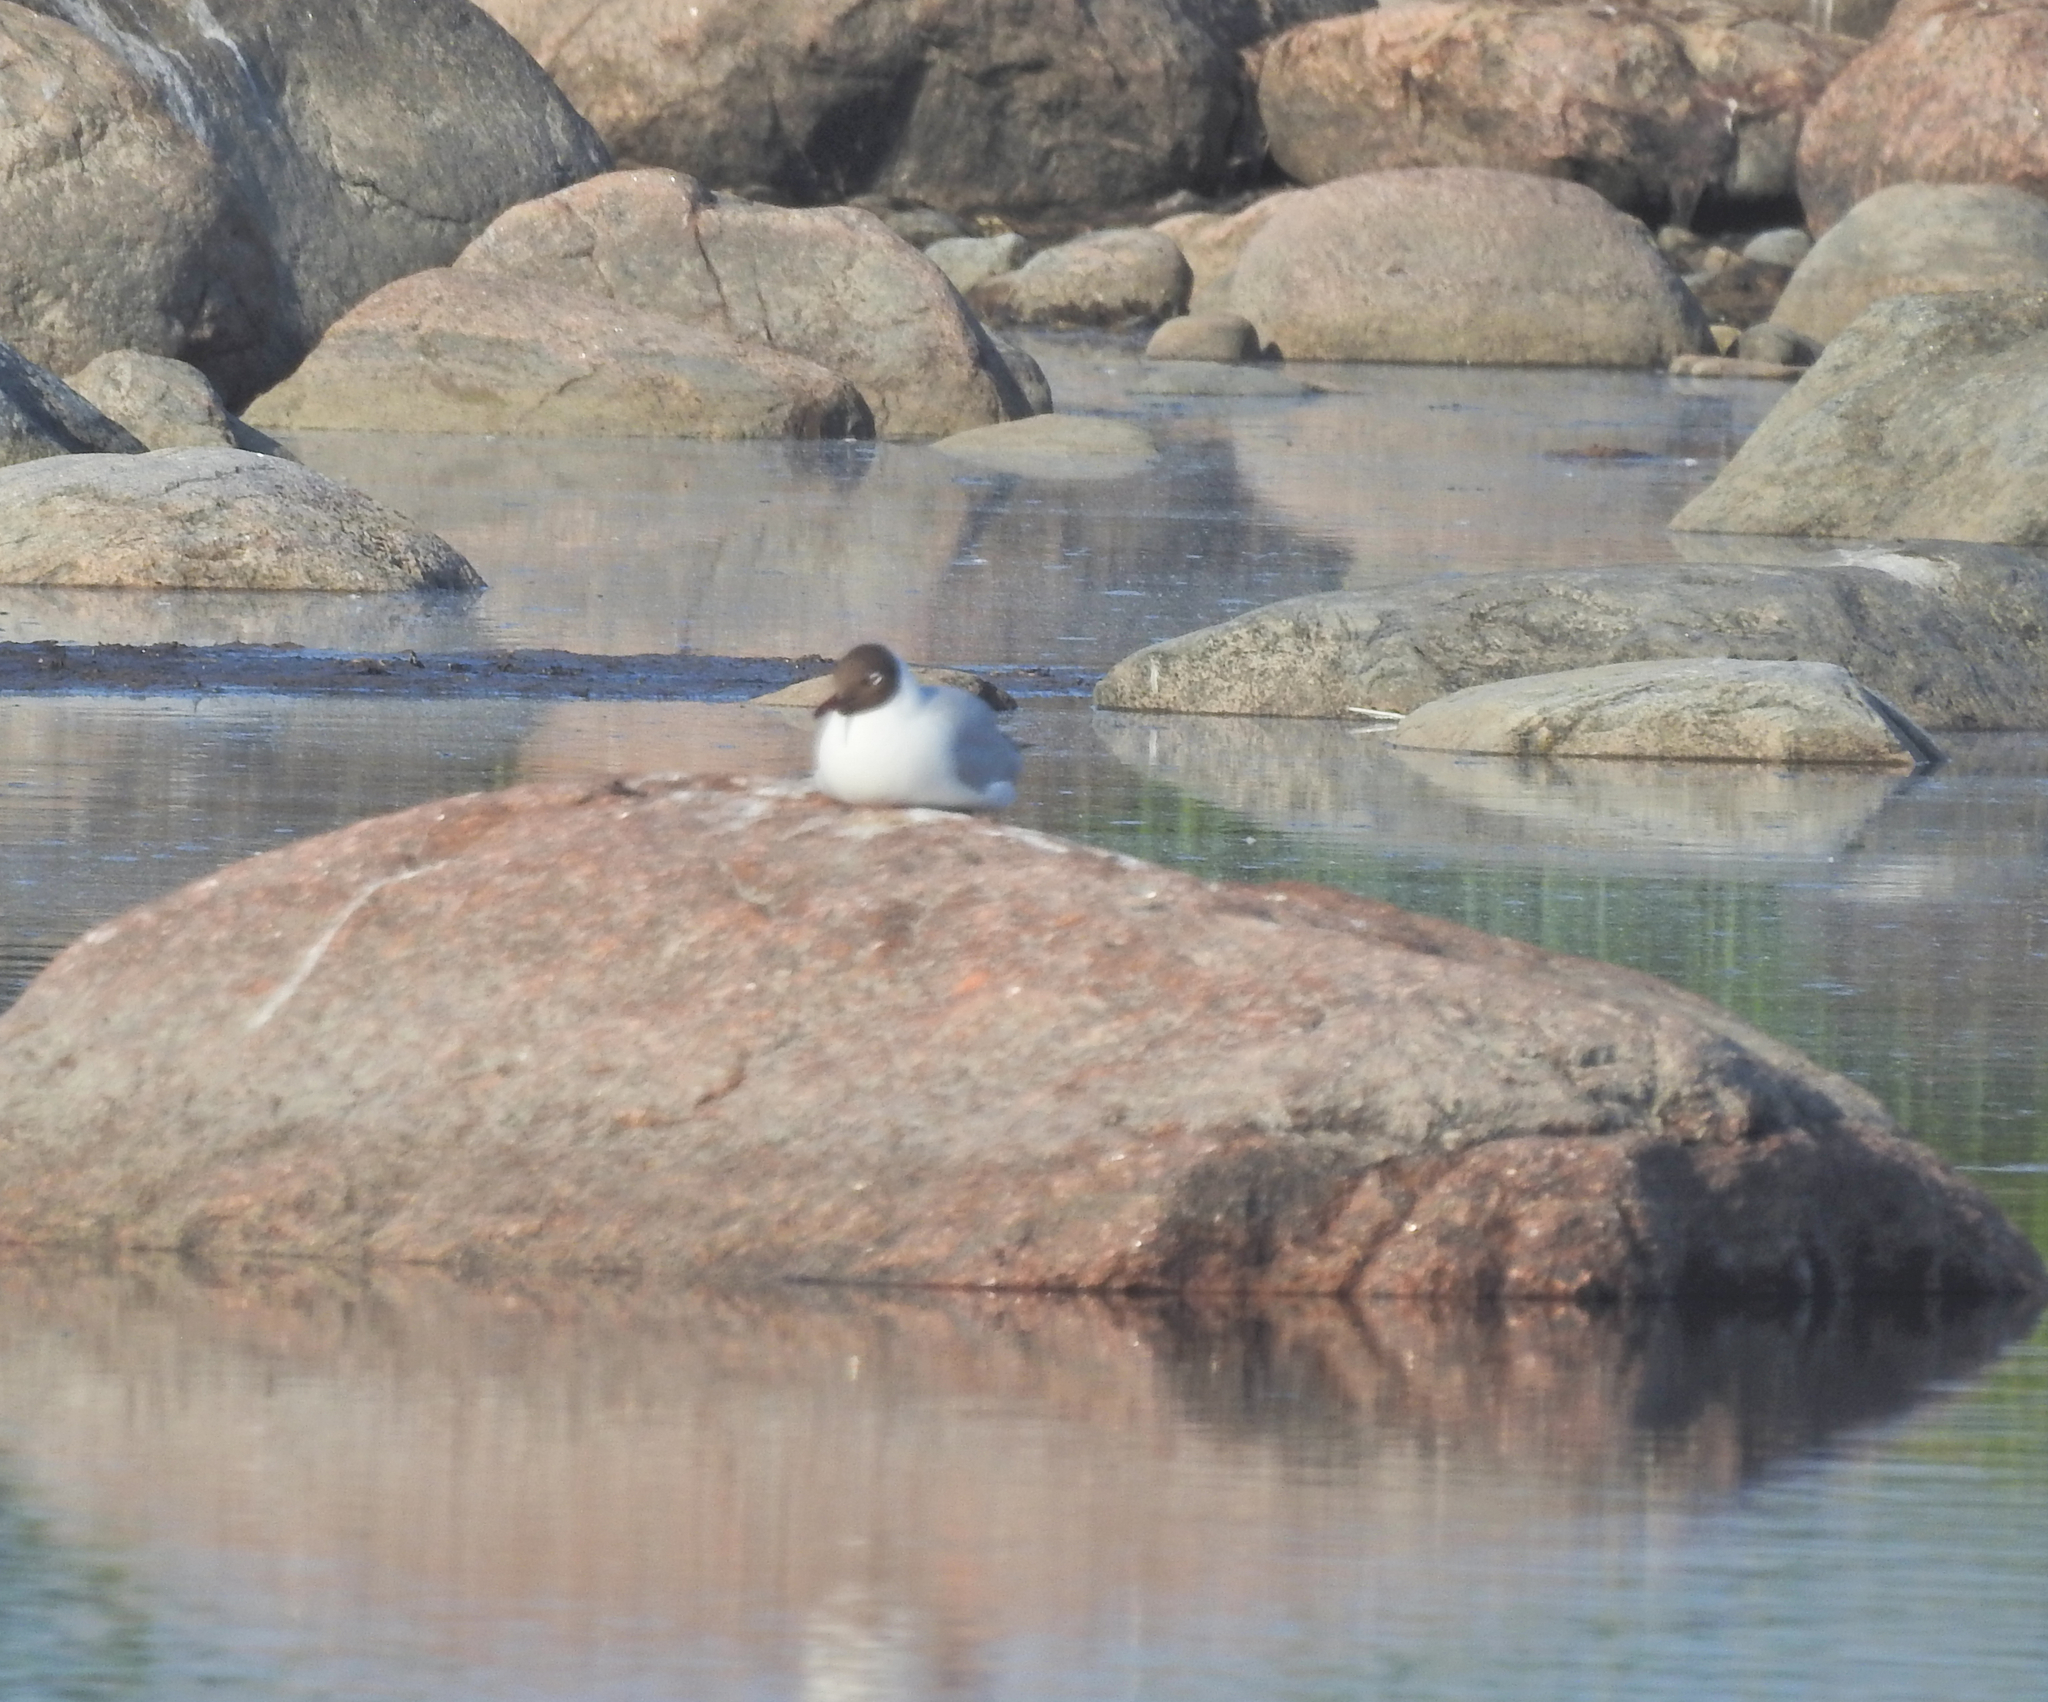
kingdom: Animalia
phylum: Chordata
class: Aves
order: Charadriiformes
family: Laridae
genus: Chroicocephalus
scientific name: Chroicocephalus ridibundus
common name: Black-headed gull
